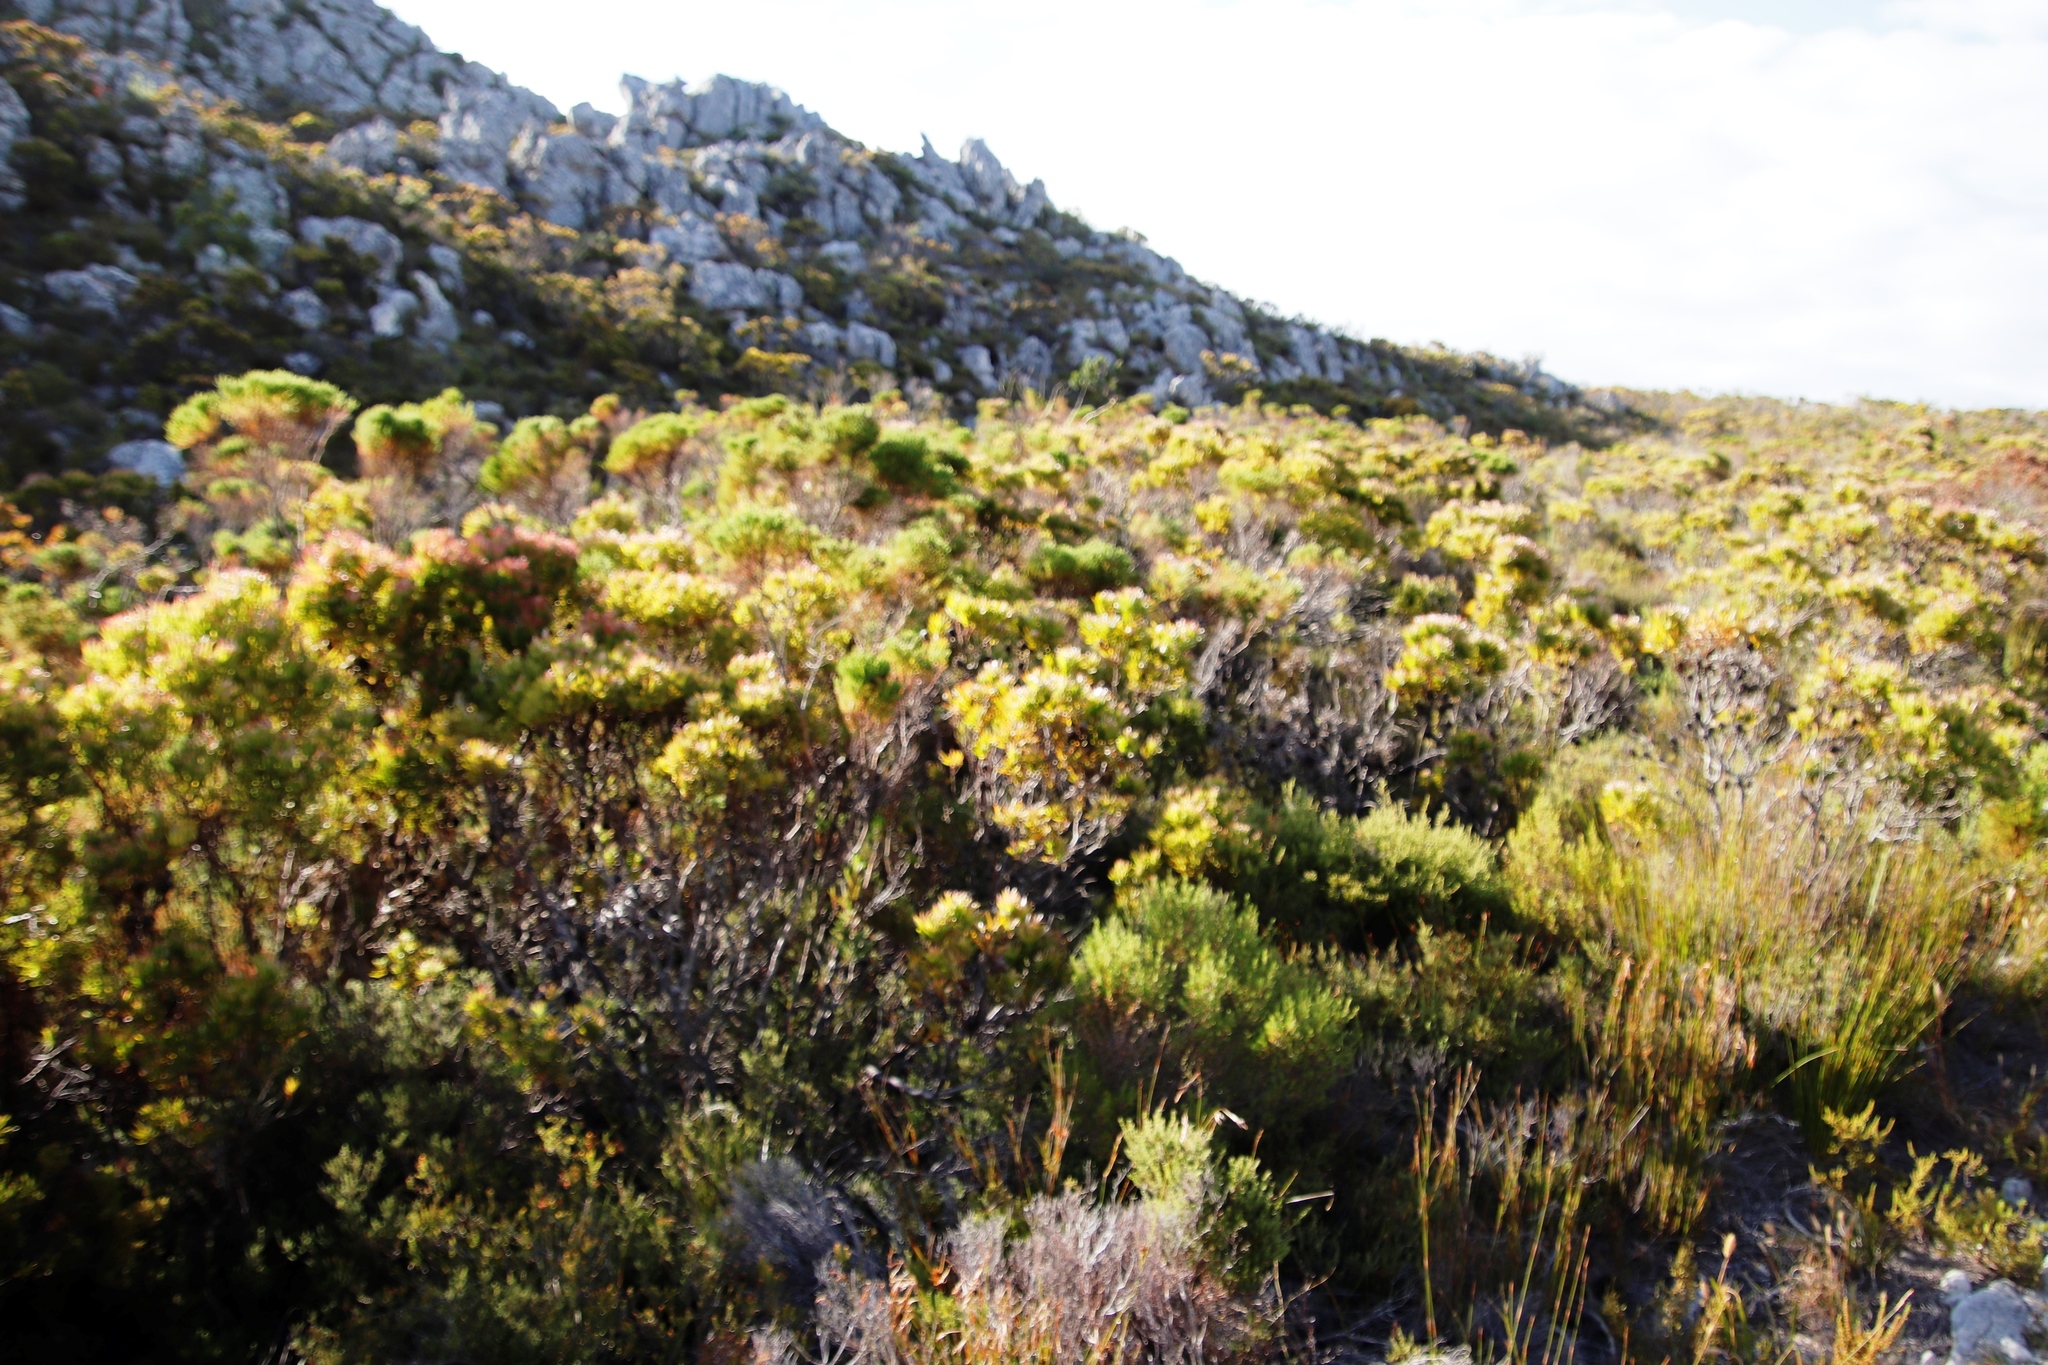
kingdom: Plantae
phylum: Tracheophyta
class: Magnoliopsida
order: Bruniales
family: Bruniaceae
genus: Berzelia
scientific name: Berzelia lanuginosa
